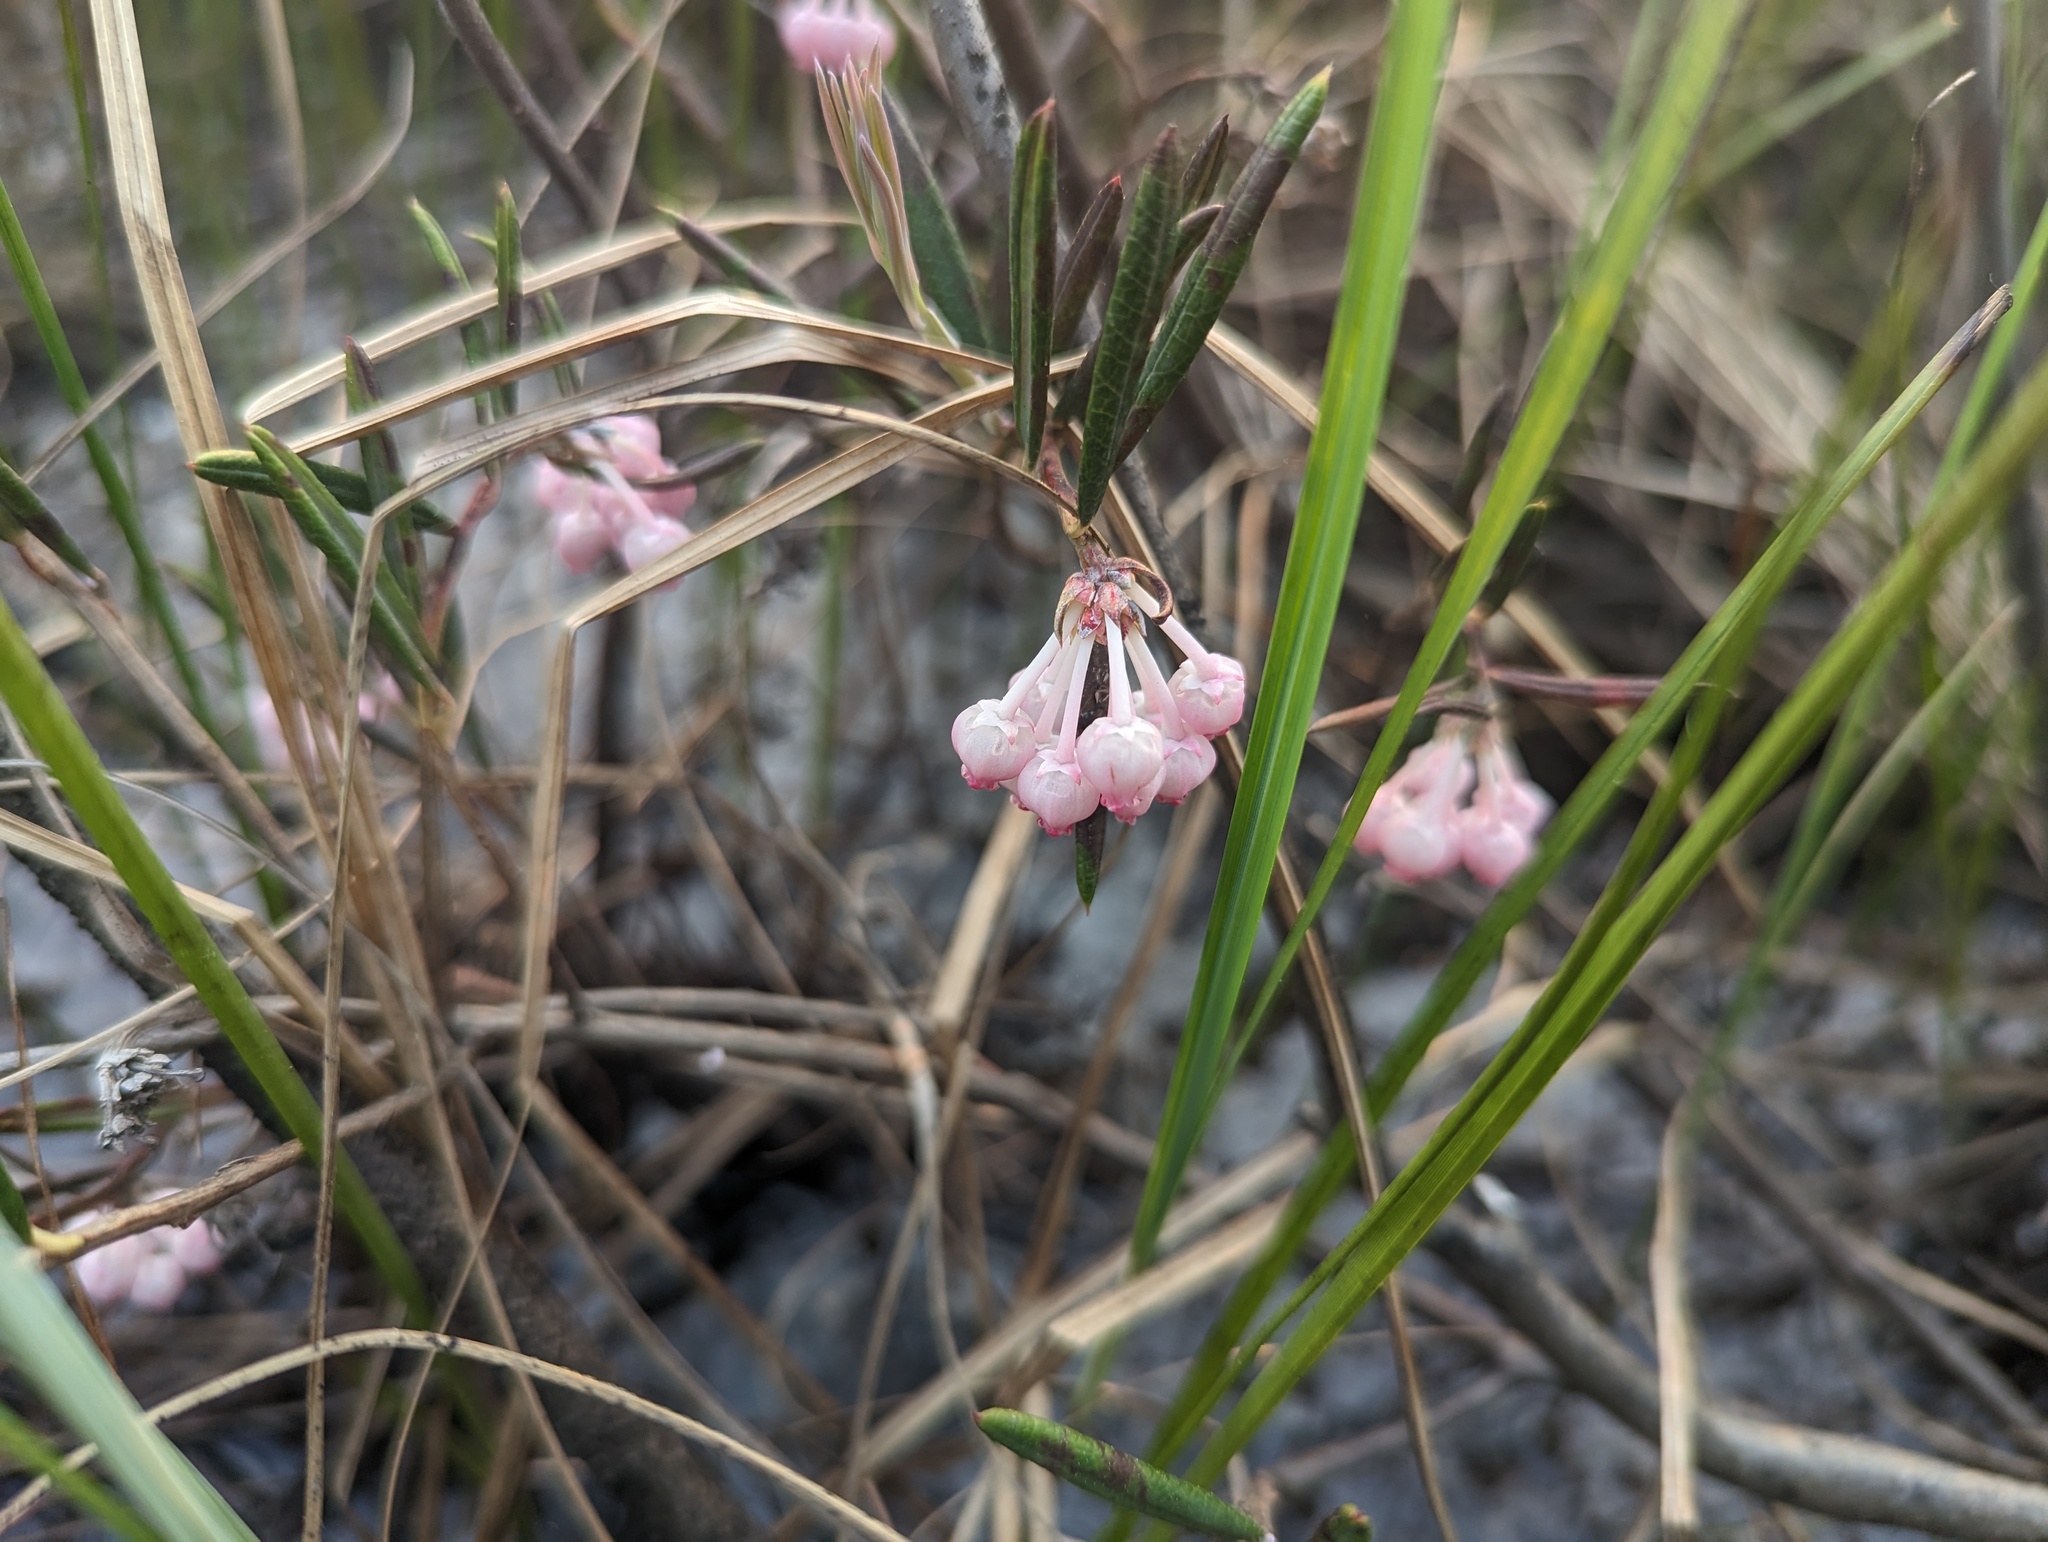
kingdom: Plantae
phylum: Tracheophyta
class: Magnoliopsida
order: Ericales
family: Ericaceae
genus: Andromeda
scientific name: Andromeda polifolia
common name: Bog-rosemary
